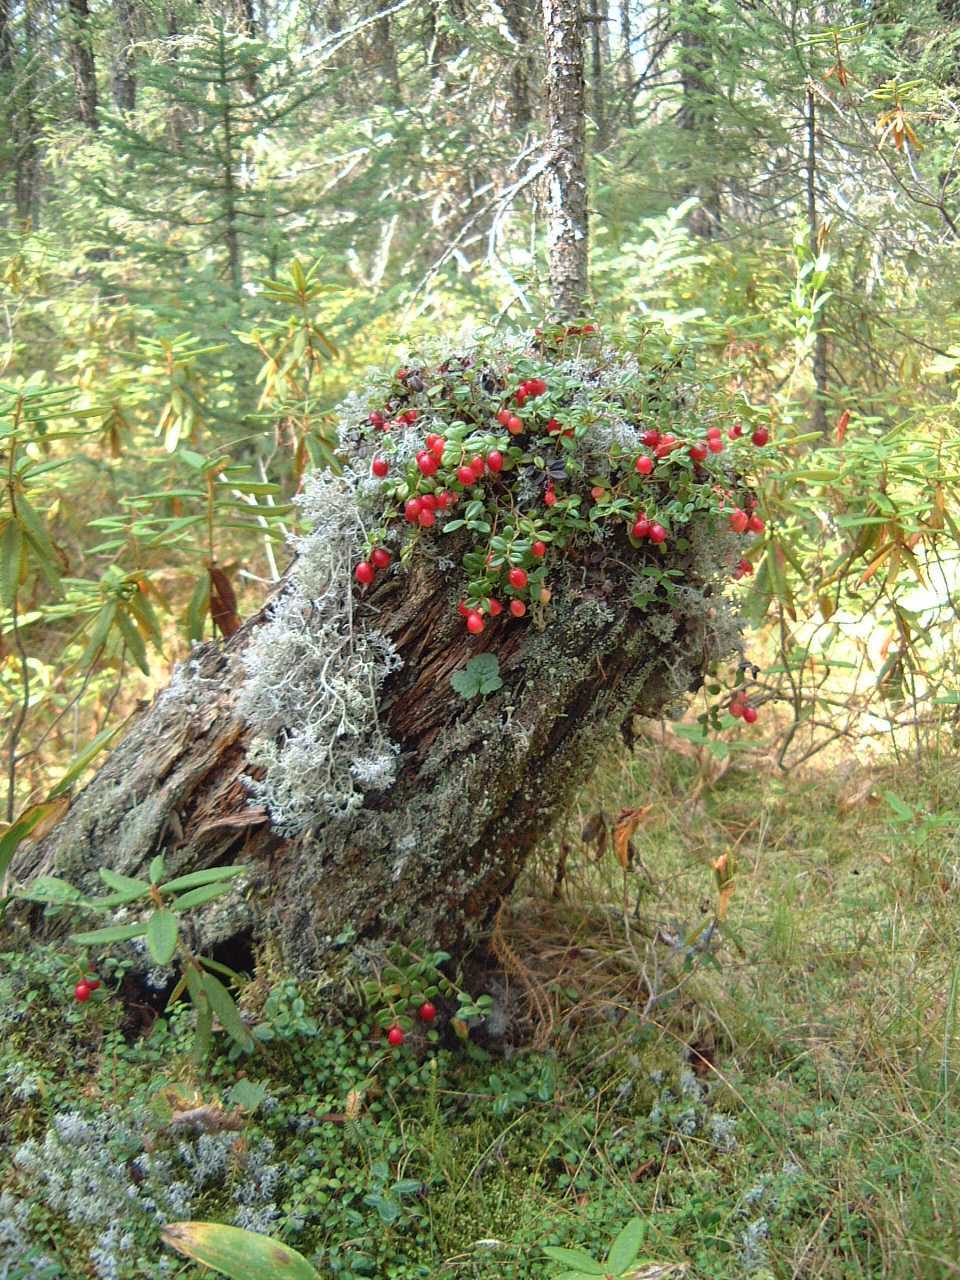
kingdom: Plantae
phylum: Tracheophyta
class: Magnoliopsida
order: Ericales
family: Ericaceae
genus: Vaccinium
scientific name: Vaccinium vitis-idaea
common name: Cowberry
